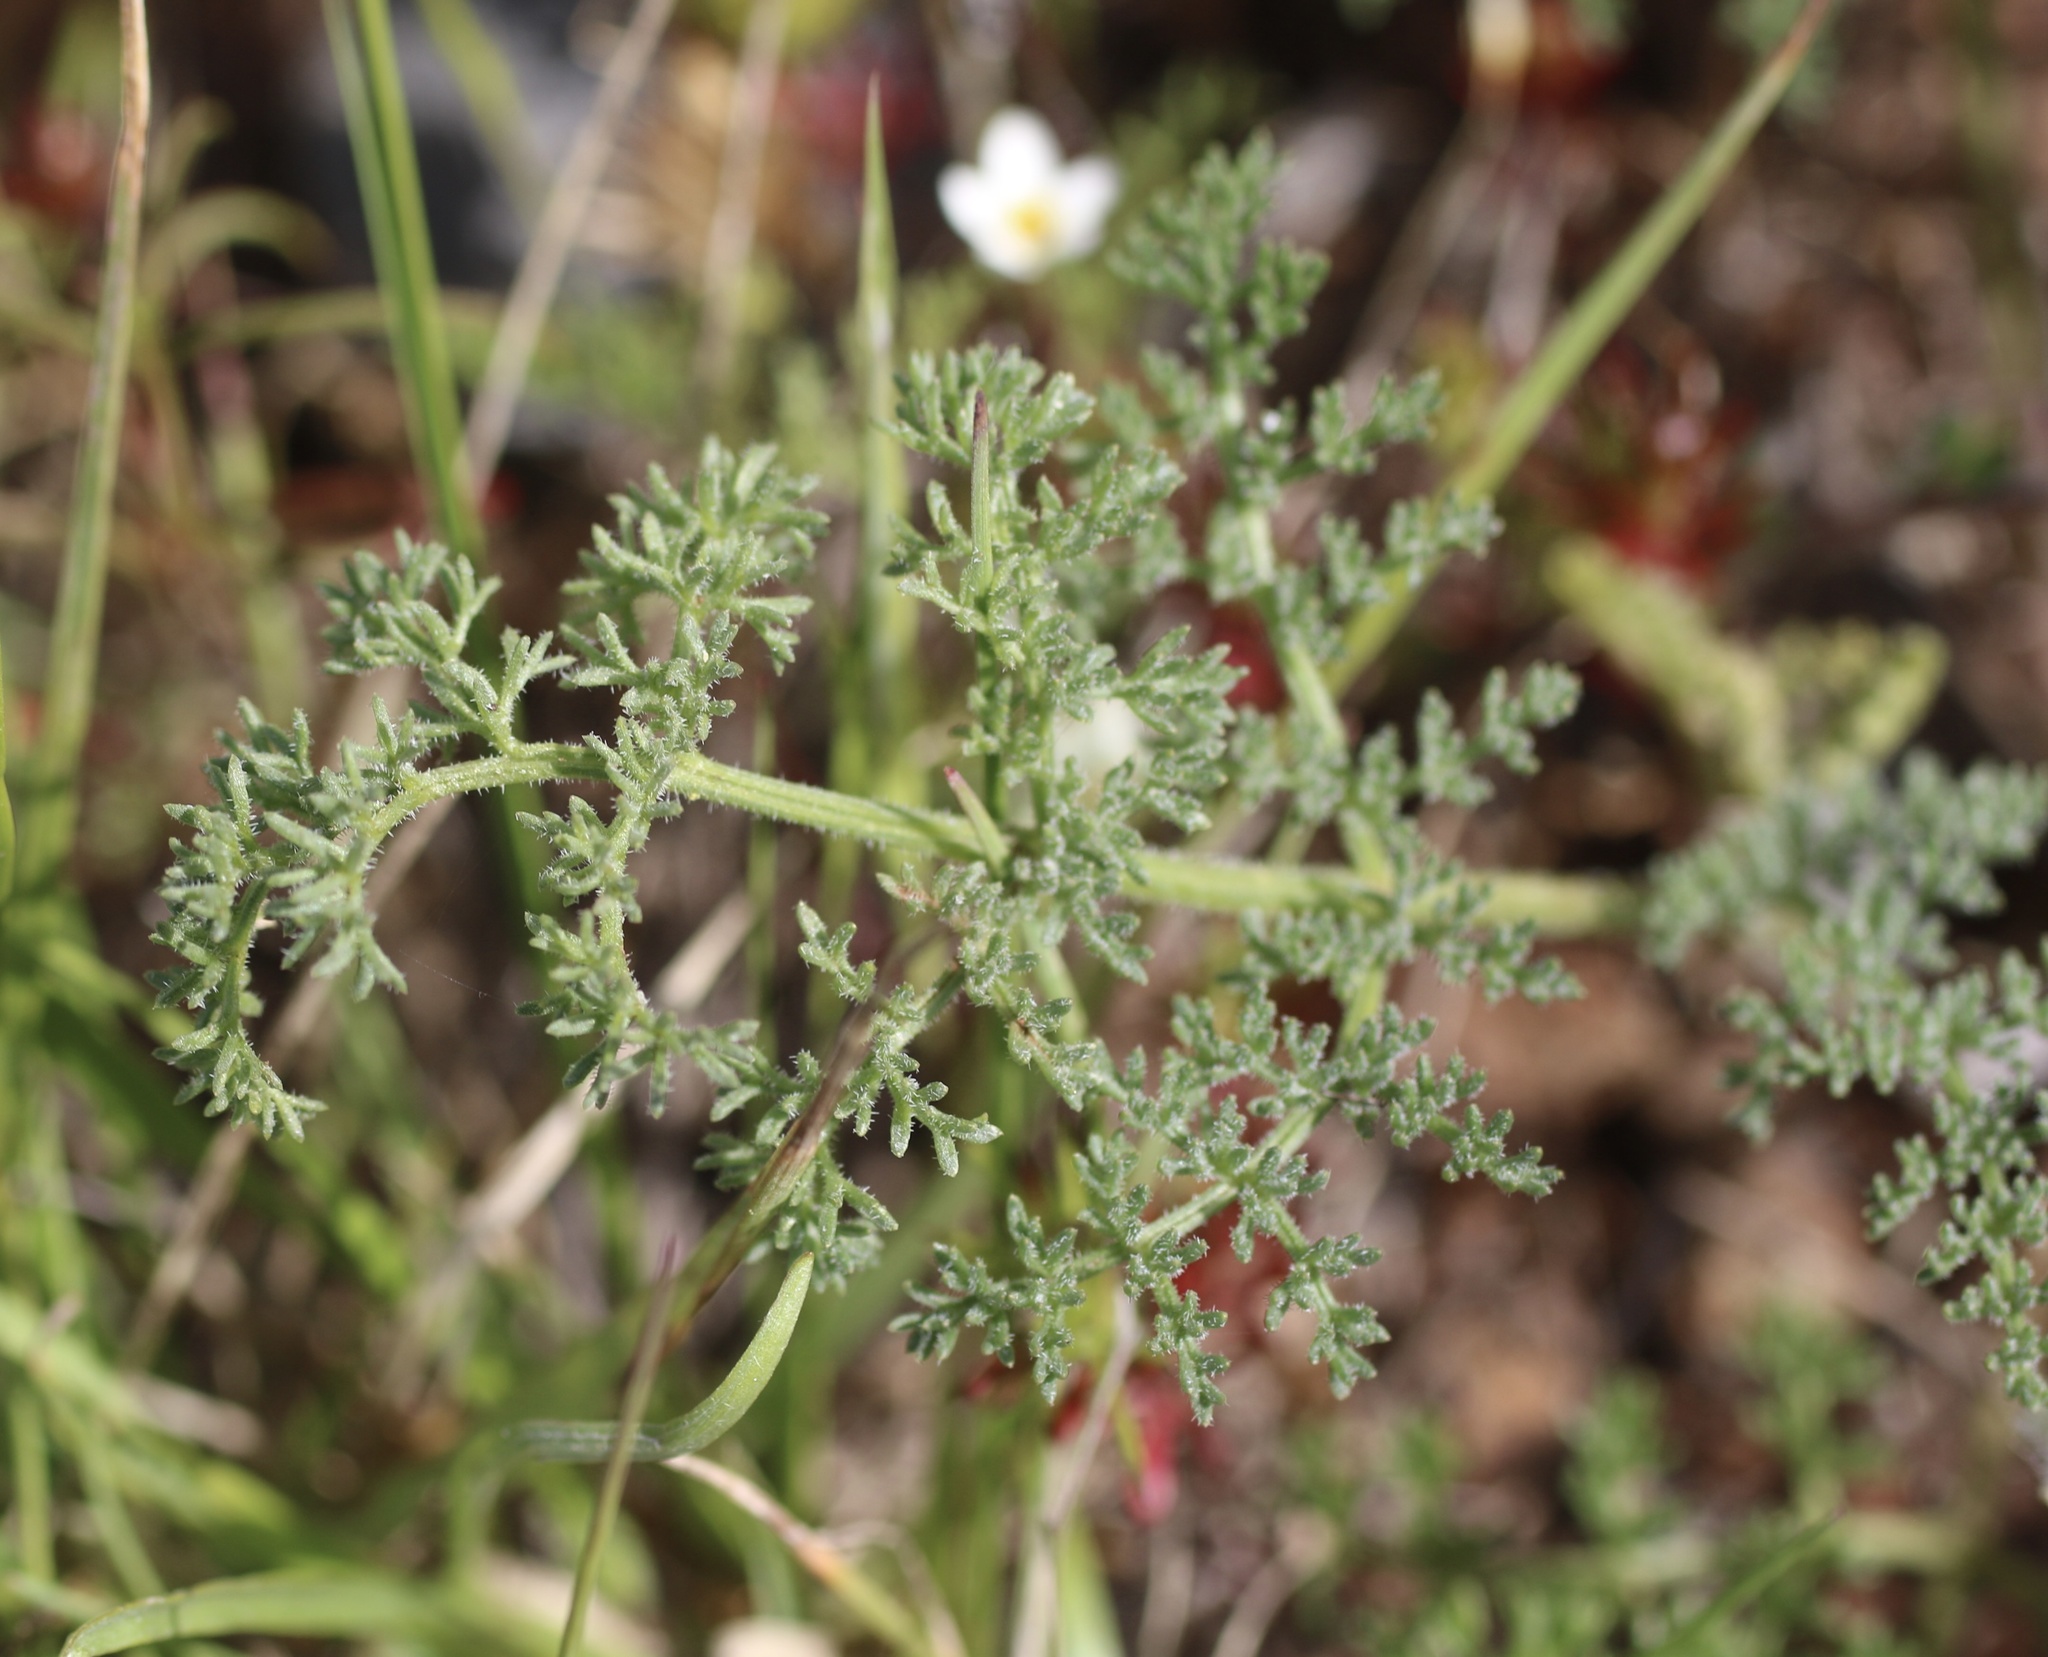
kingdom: Plantae
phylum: Tracheophyta
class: Magnoliopsida
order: Apiales
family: Apiaceae
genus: Lomatium
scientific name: Lomatium dasycarpum
